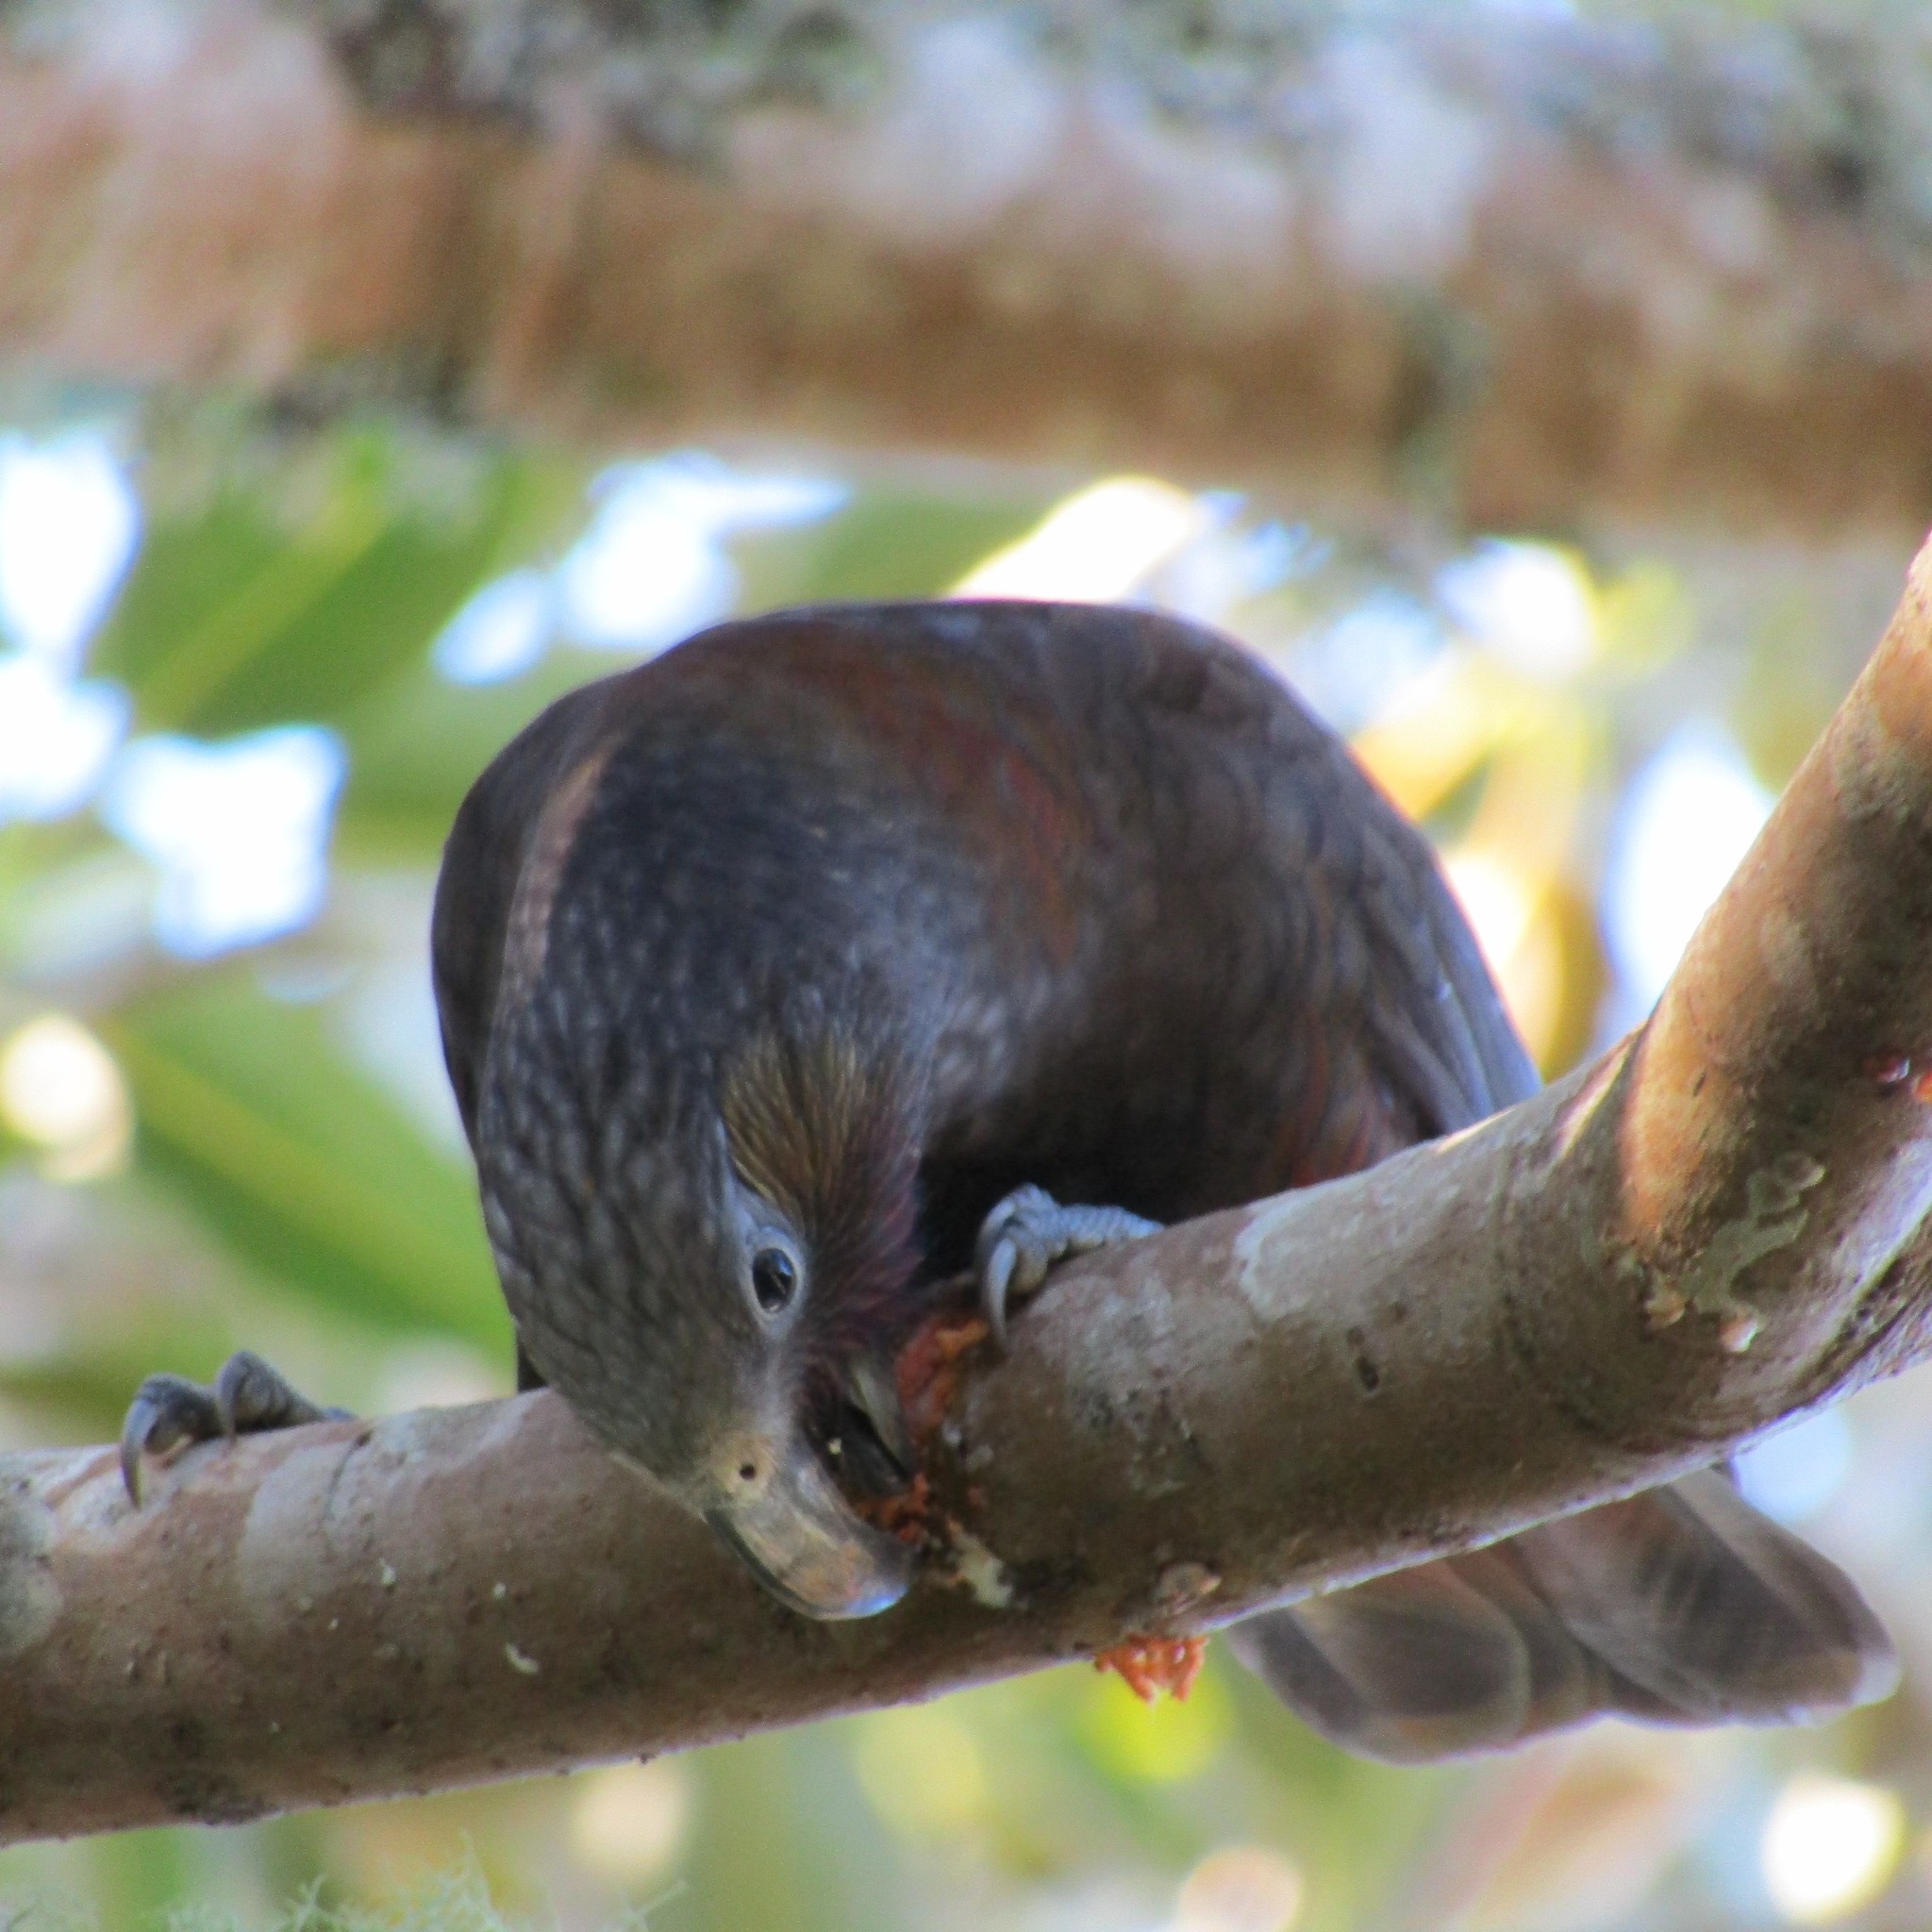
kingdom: Animalia
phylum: Chordata
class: Aves
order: Psittaciformes
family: Psittacidae
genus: Nestor
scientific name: Nestor meridionalis
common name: New zealand kaka
